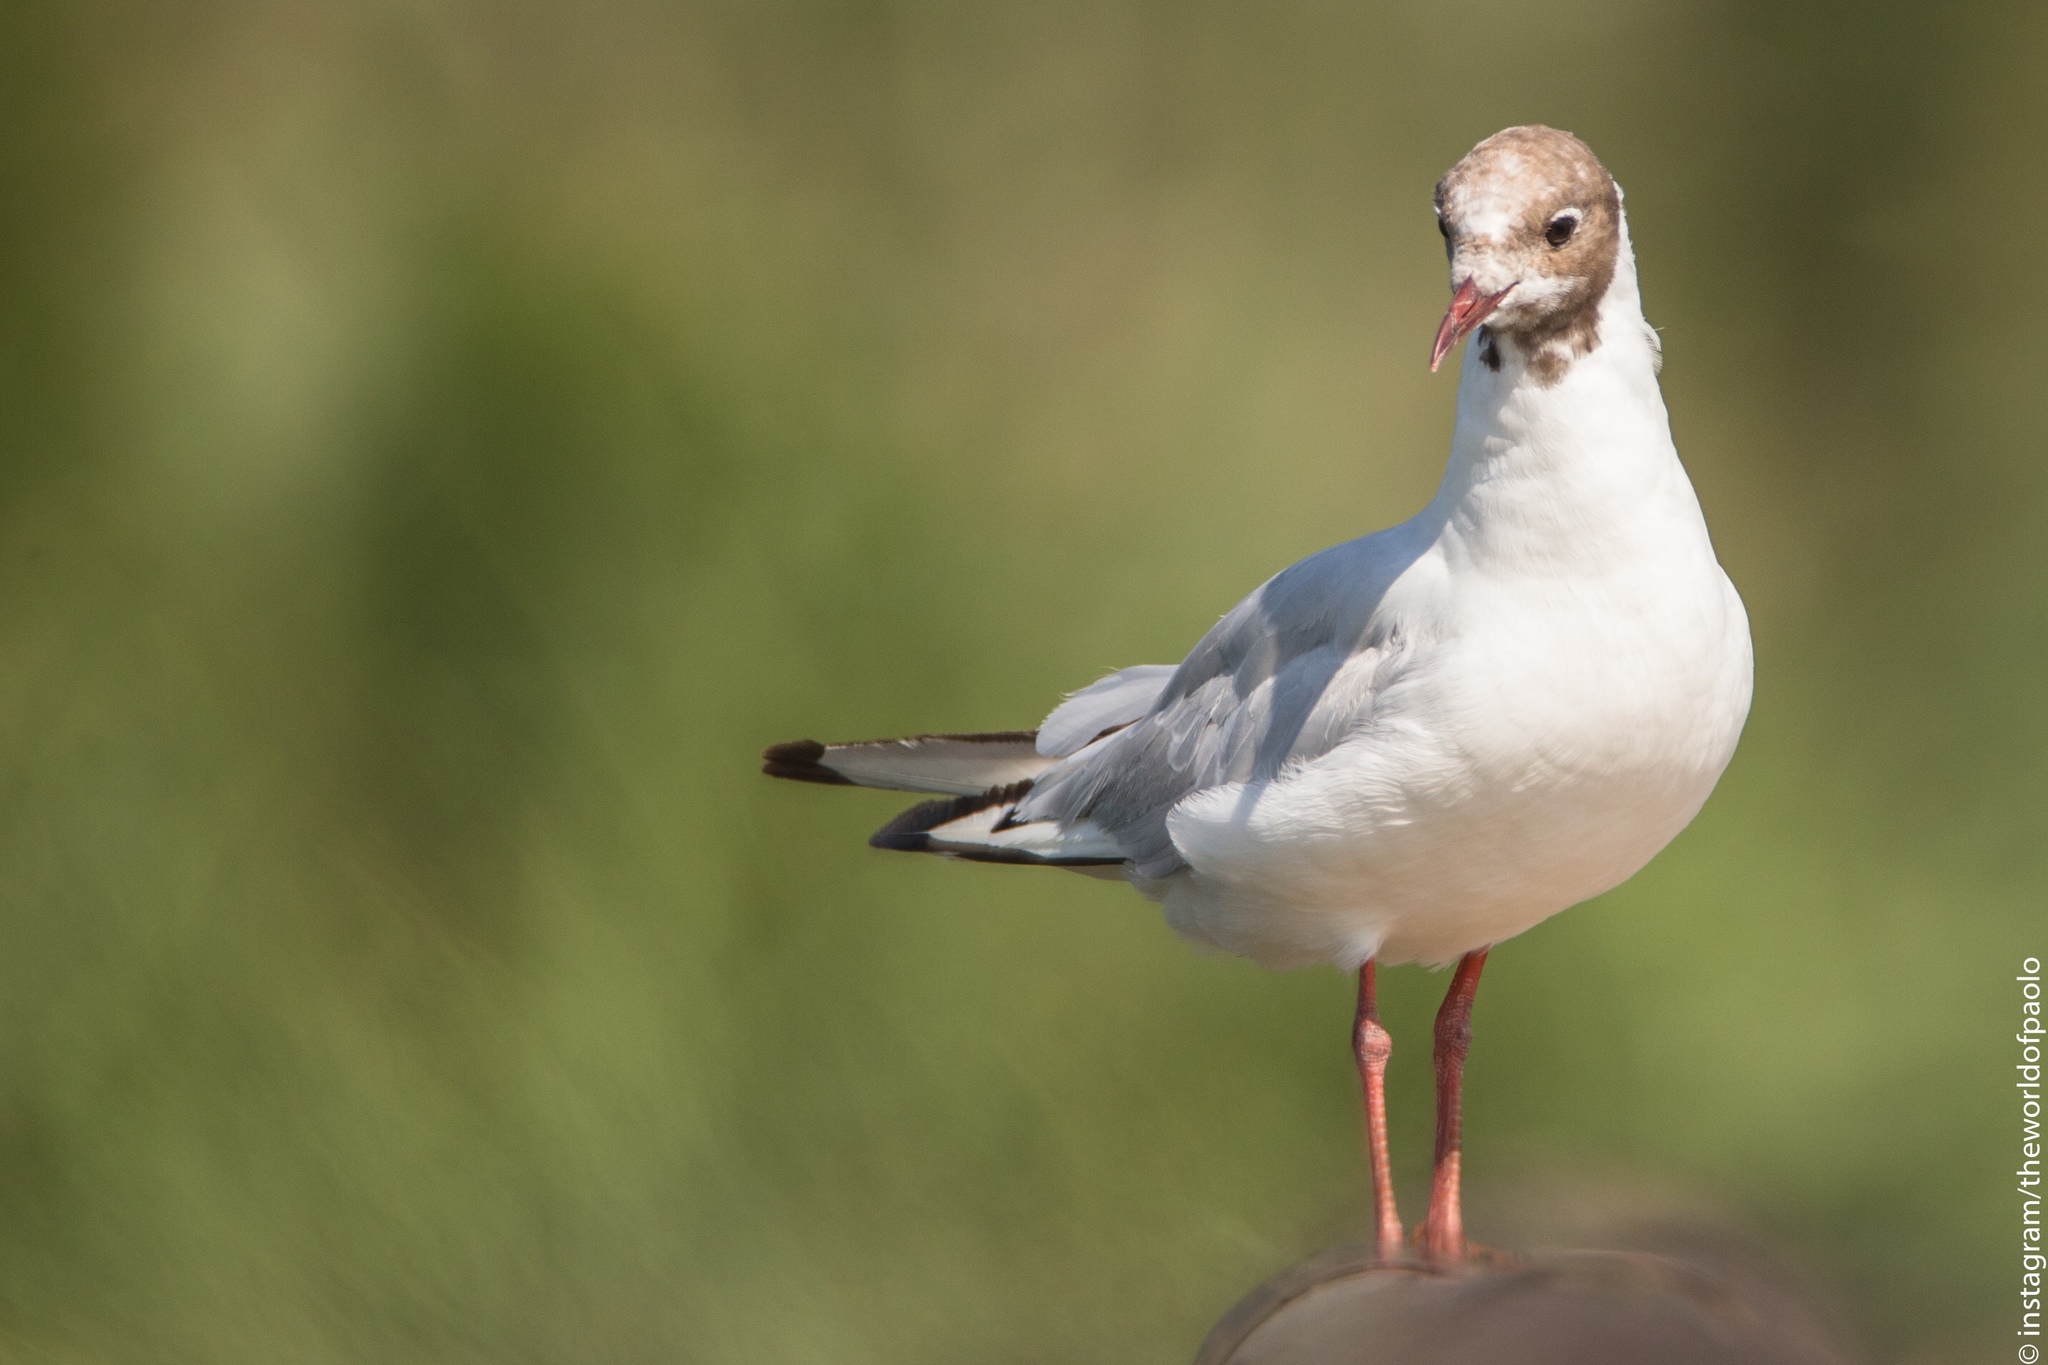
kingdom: Animalia
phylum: Chordata
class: Aves
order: Charadriiformes
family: Laridae
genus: Chroicocephalus
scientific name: Chroicocephalus ridibundus
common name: Black-headed gull
